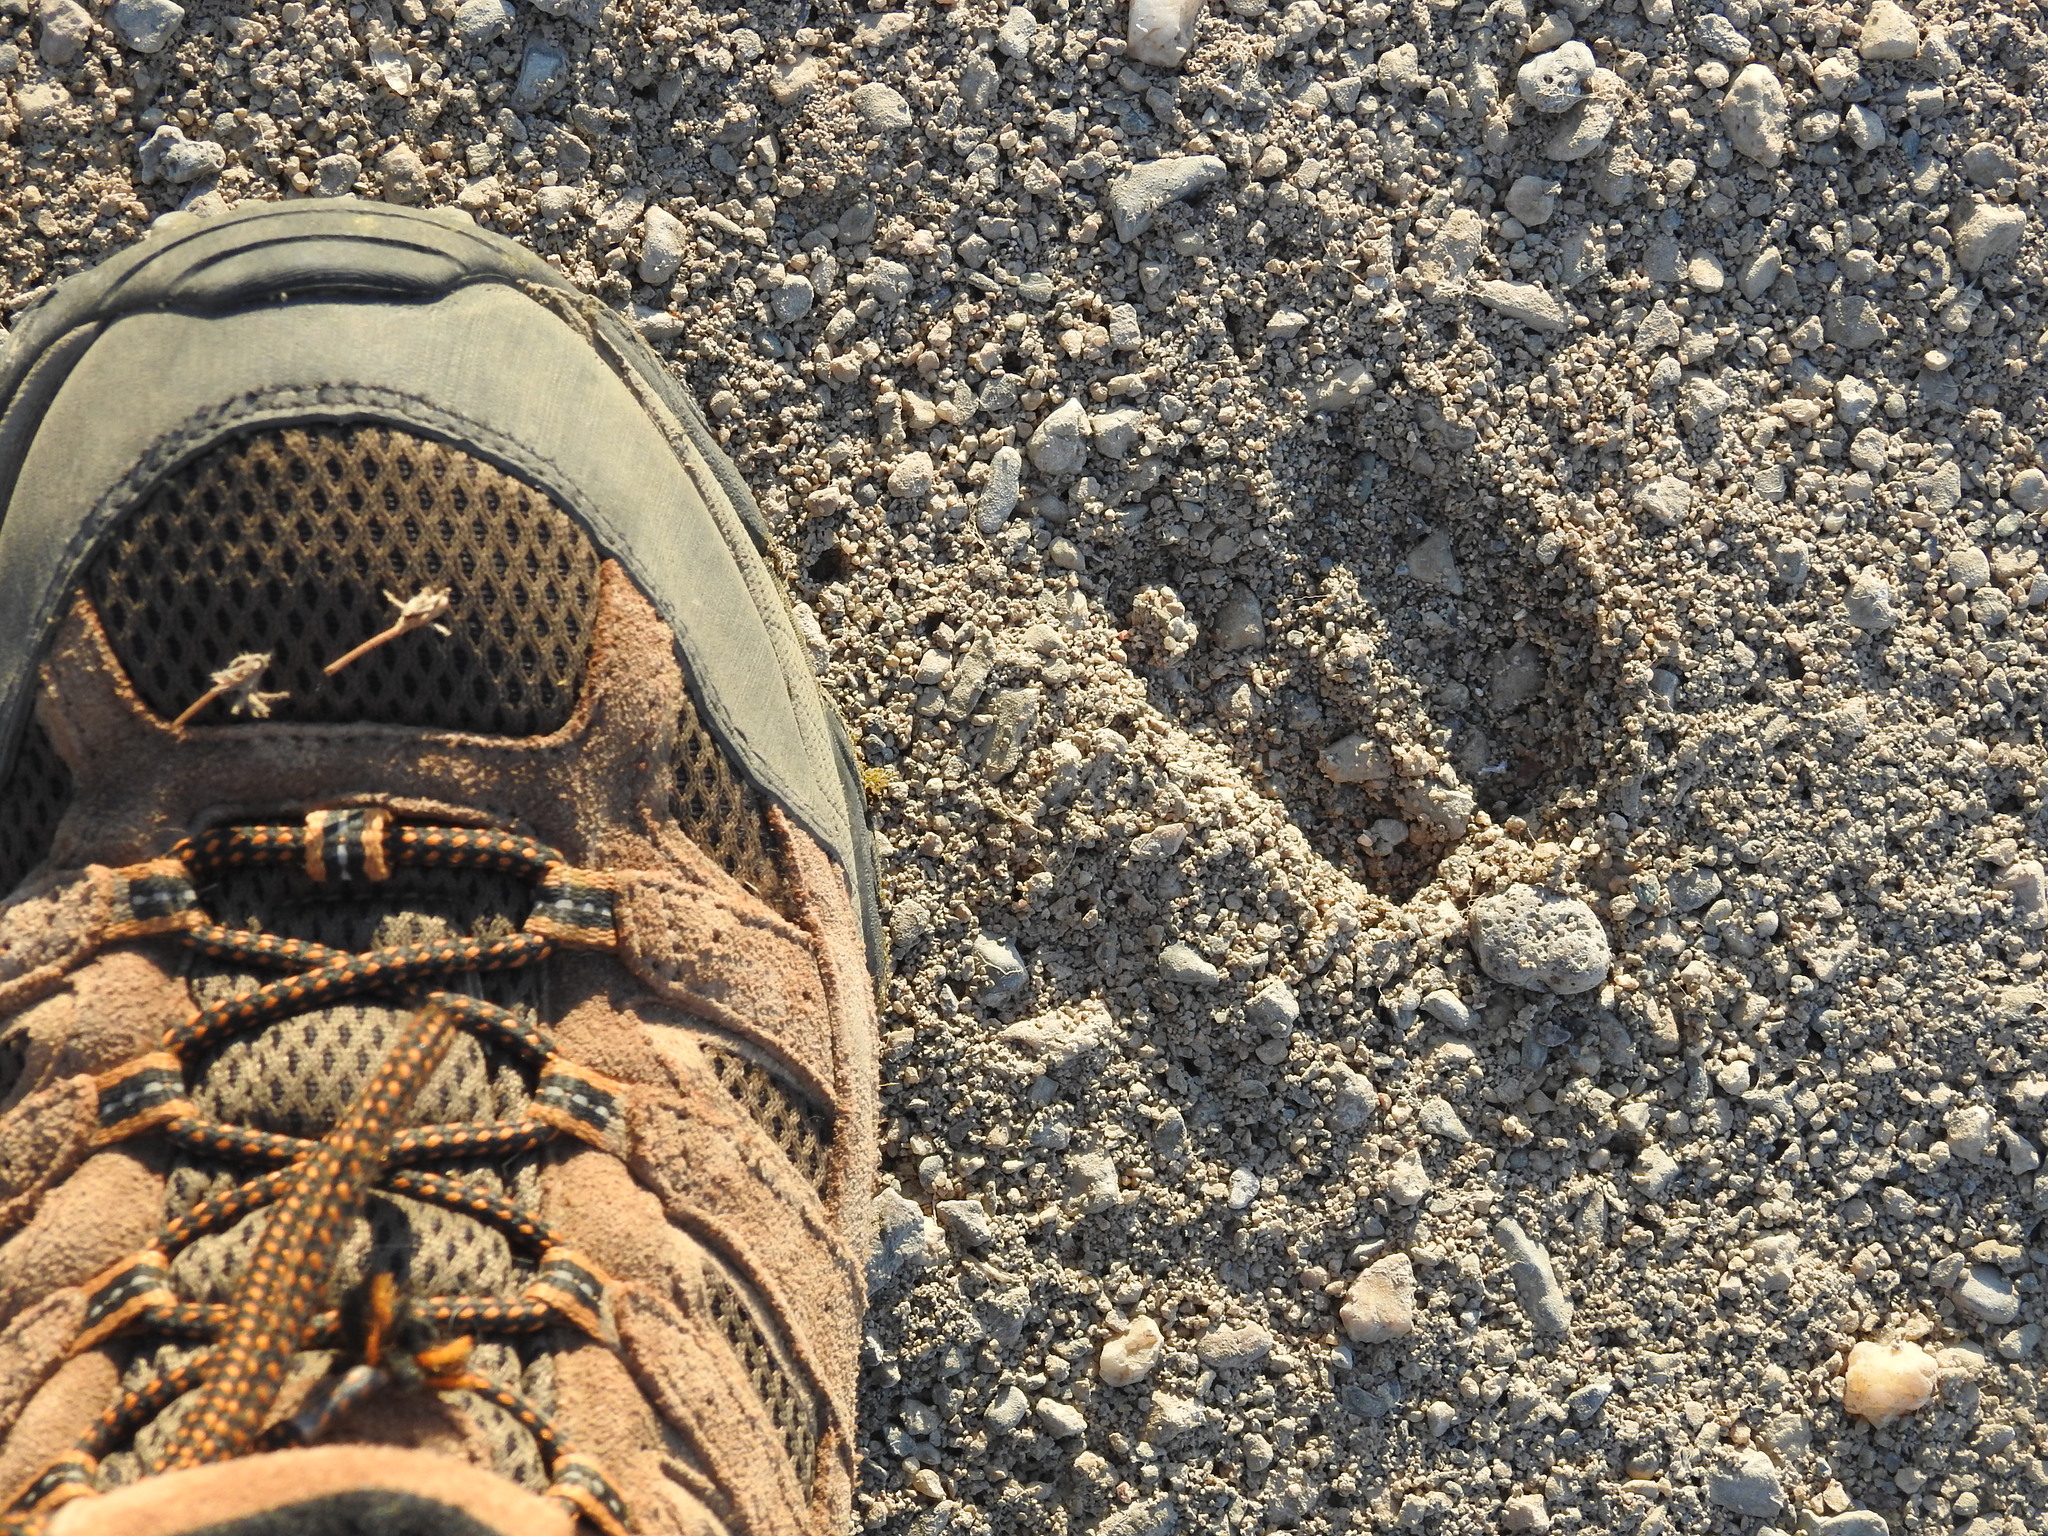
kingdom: Animalia
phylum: Chordata
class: Mammalia
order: Artiodactyla
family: Tayassuidae
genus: Pecari
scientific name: Pecari tajacu
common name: Collared peccary
